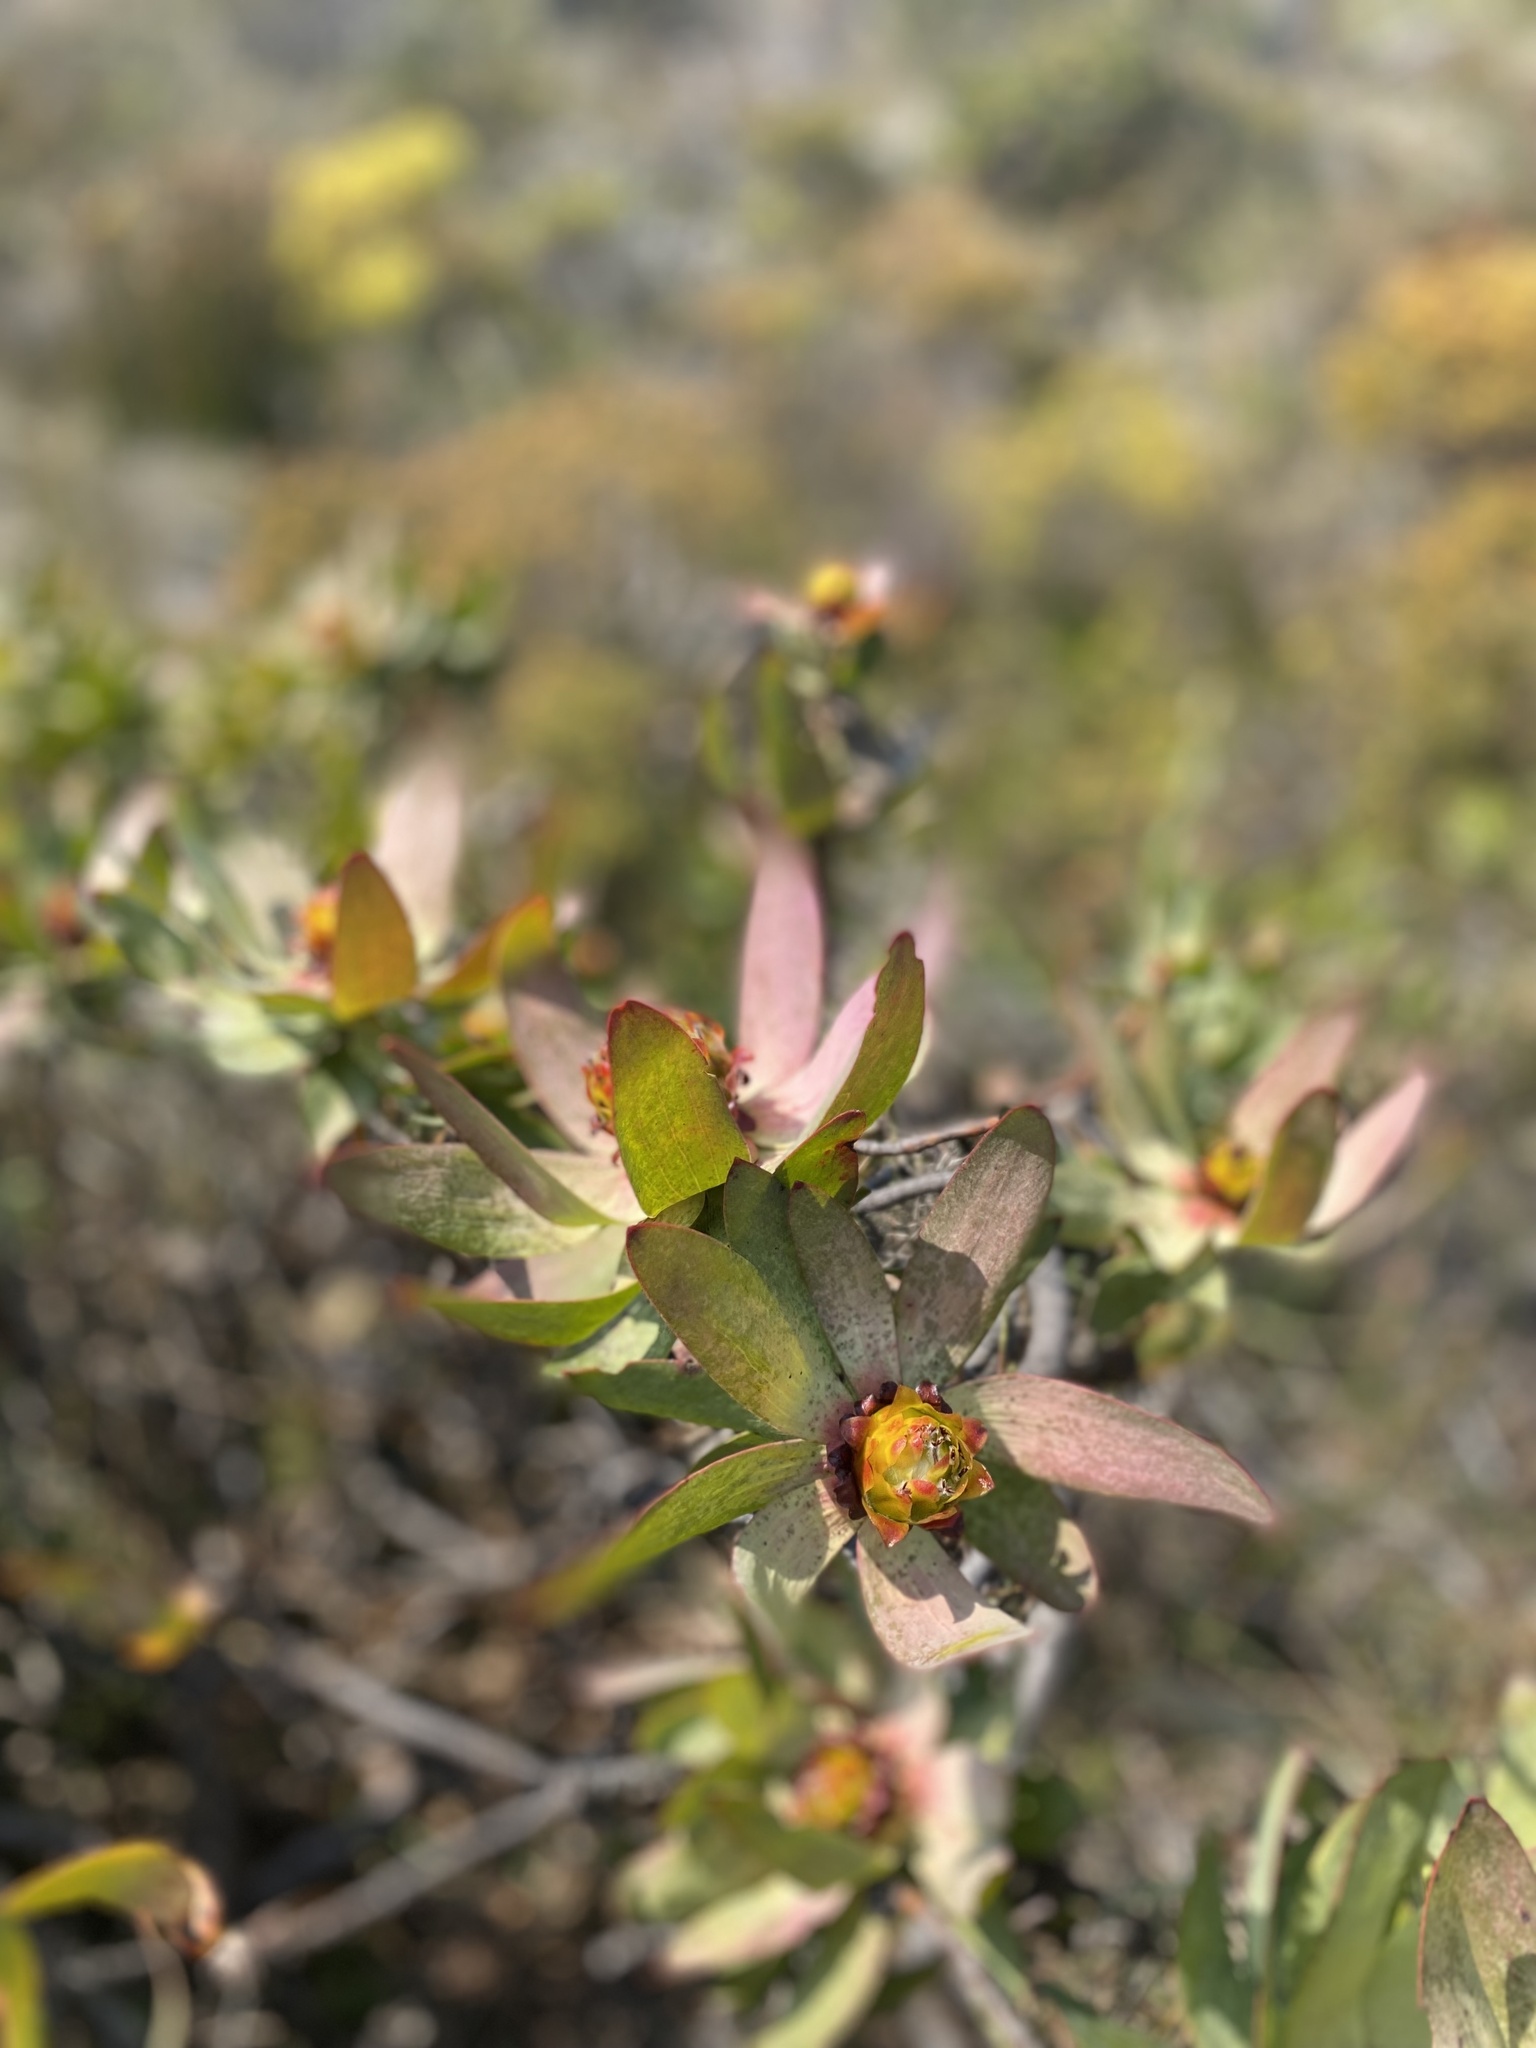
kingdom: Plantae
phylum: Tracheophyta
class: Magnoliopsida
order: Proteales
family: Proteaceae
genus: Leucadendron
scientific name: Leucadendron tinctum
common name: Spicy conebush
